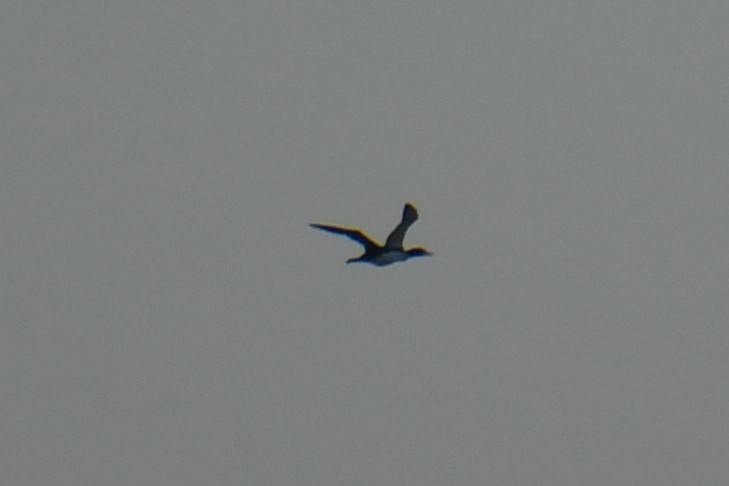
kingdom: Animalia
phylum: Chordata
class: Aves
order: Anseriformes
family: Anatidae
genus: Mergus
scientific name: Mergus merganser
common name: Common merganser
